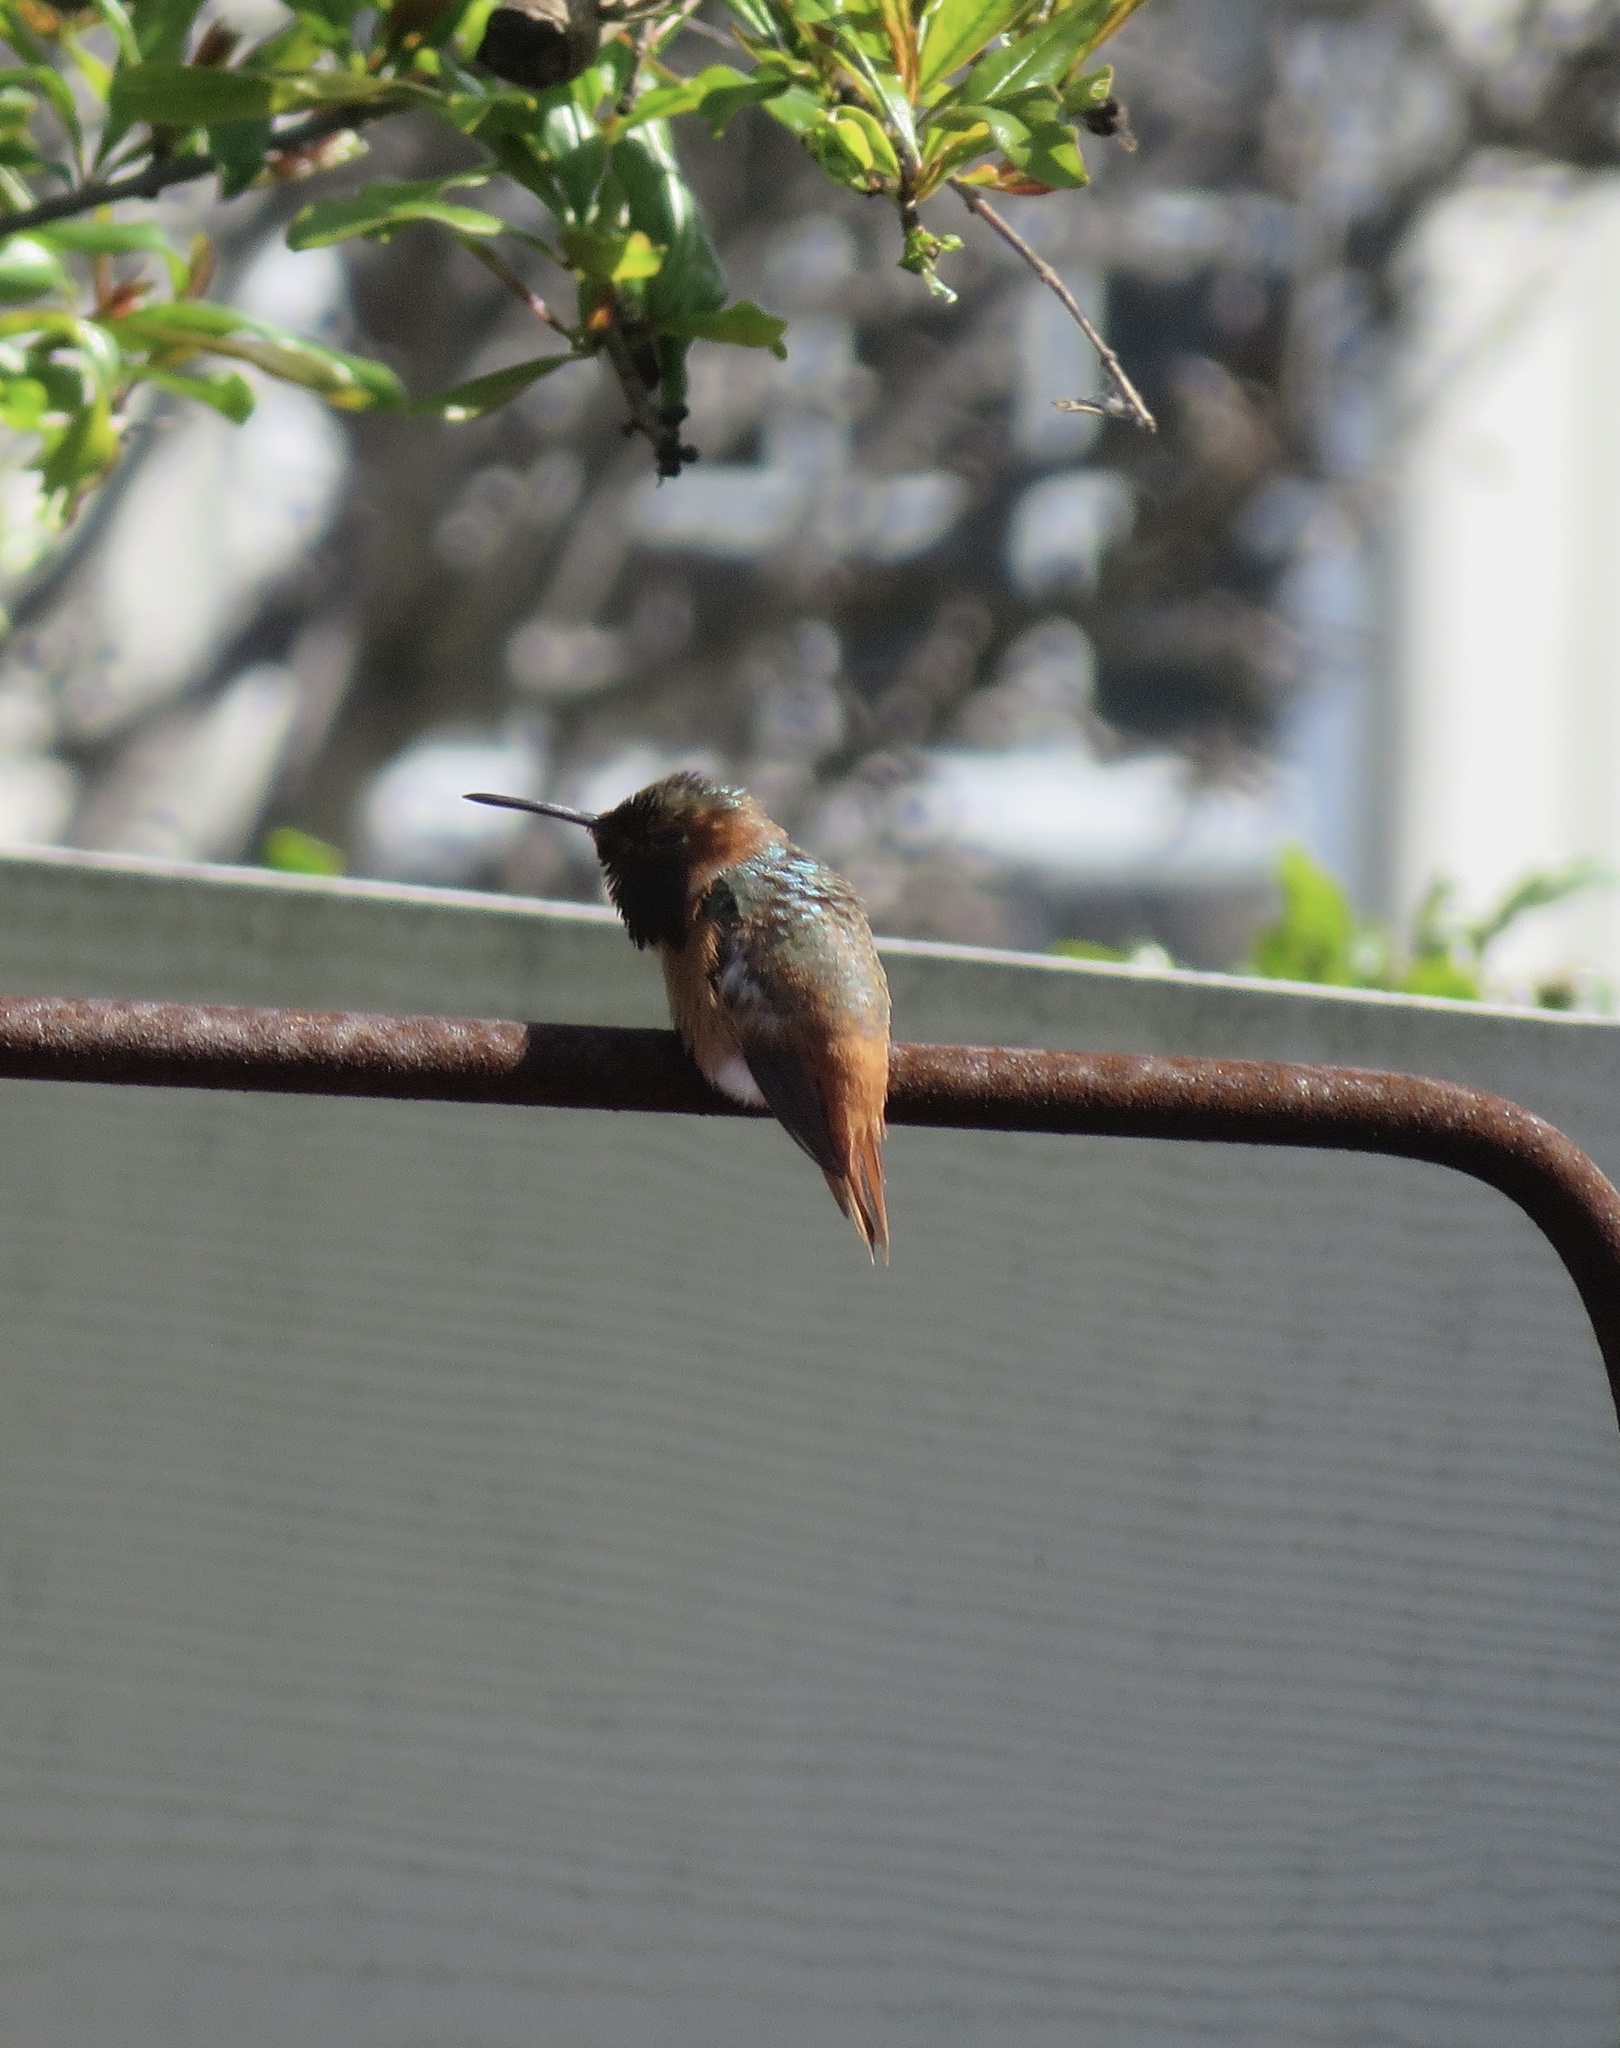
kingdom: Animalia
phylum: Chordata
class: Aves
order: Apodiformes
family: Trochilidae
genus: Selasphorus
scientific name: Selasphorus sasin
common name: Allen's hummingbird
